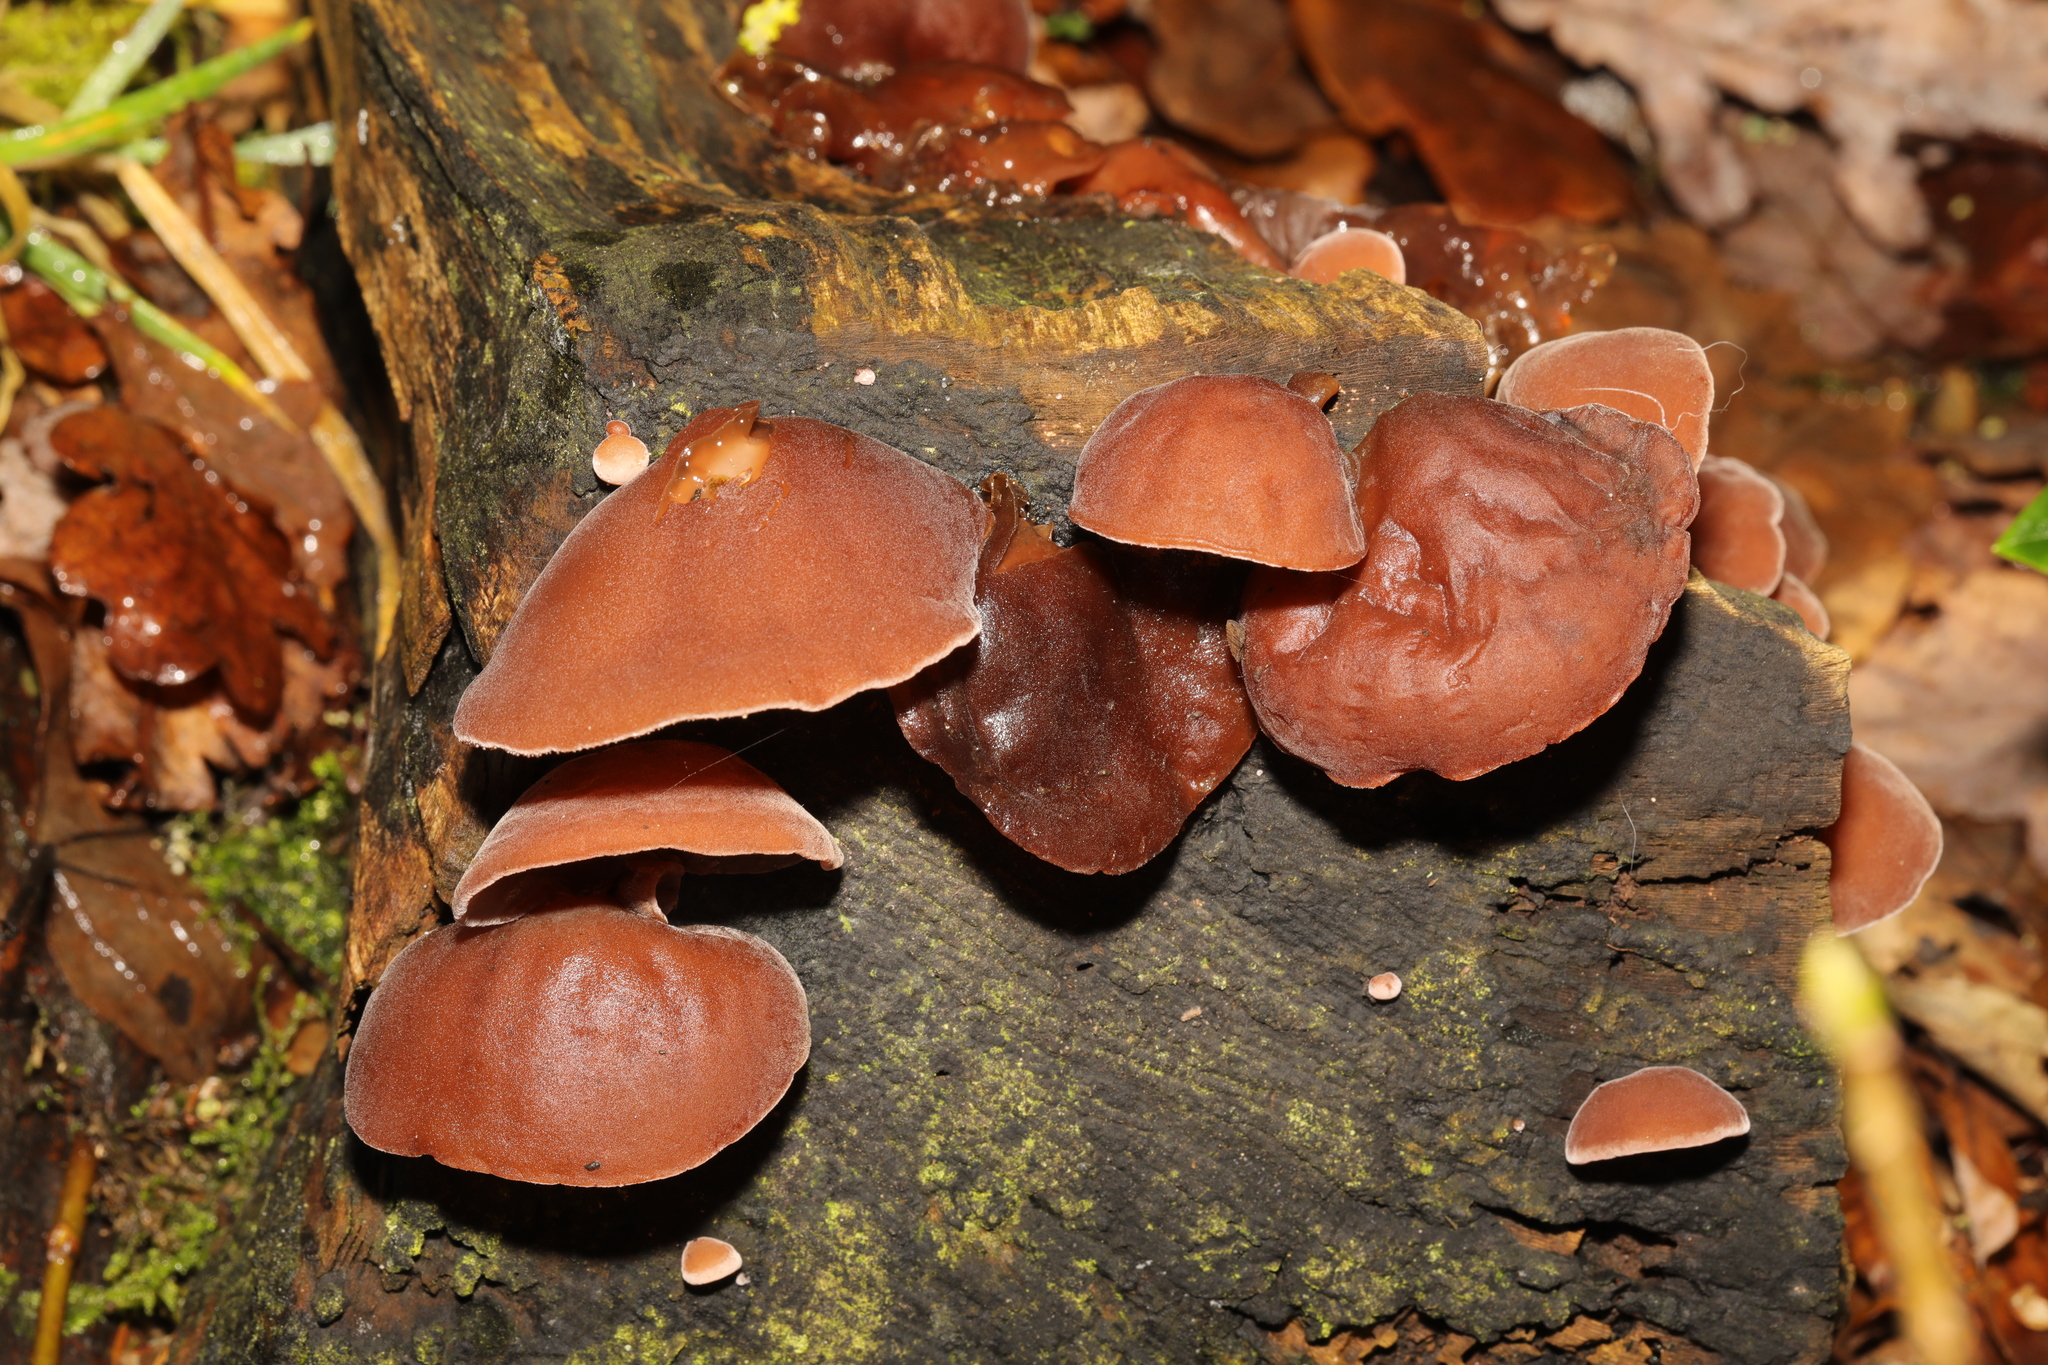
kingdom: Fungi
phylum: Basidiomycota
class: Agaricomycetes
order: Auriculariales
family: Auriculariaceae
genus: Auricularia
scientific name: Auricularia auricula-judae
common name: Jelly ear
